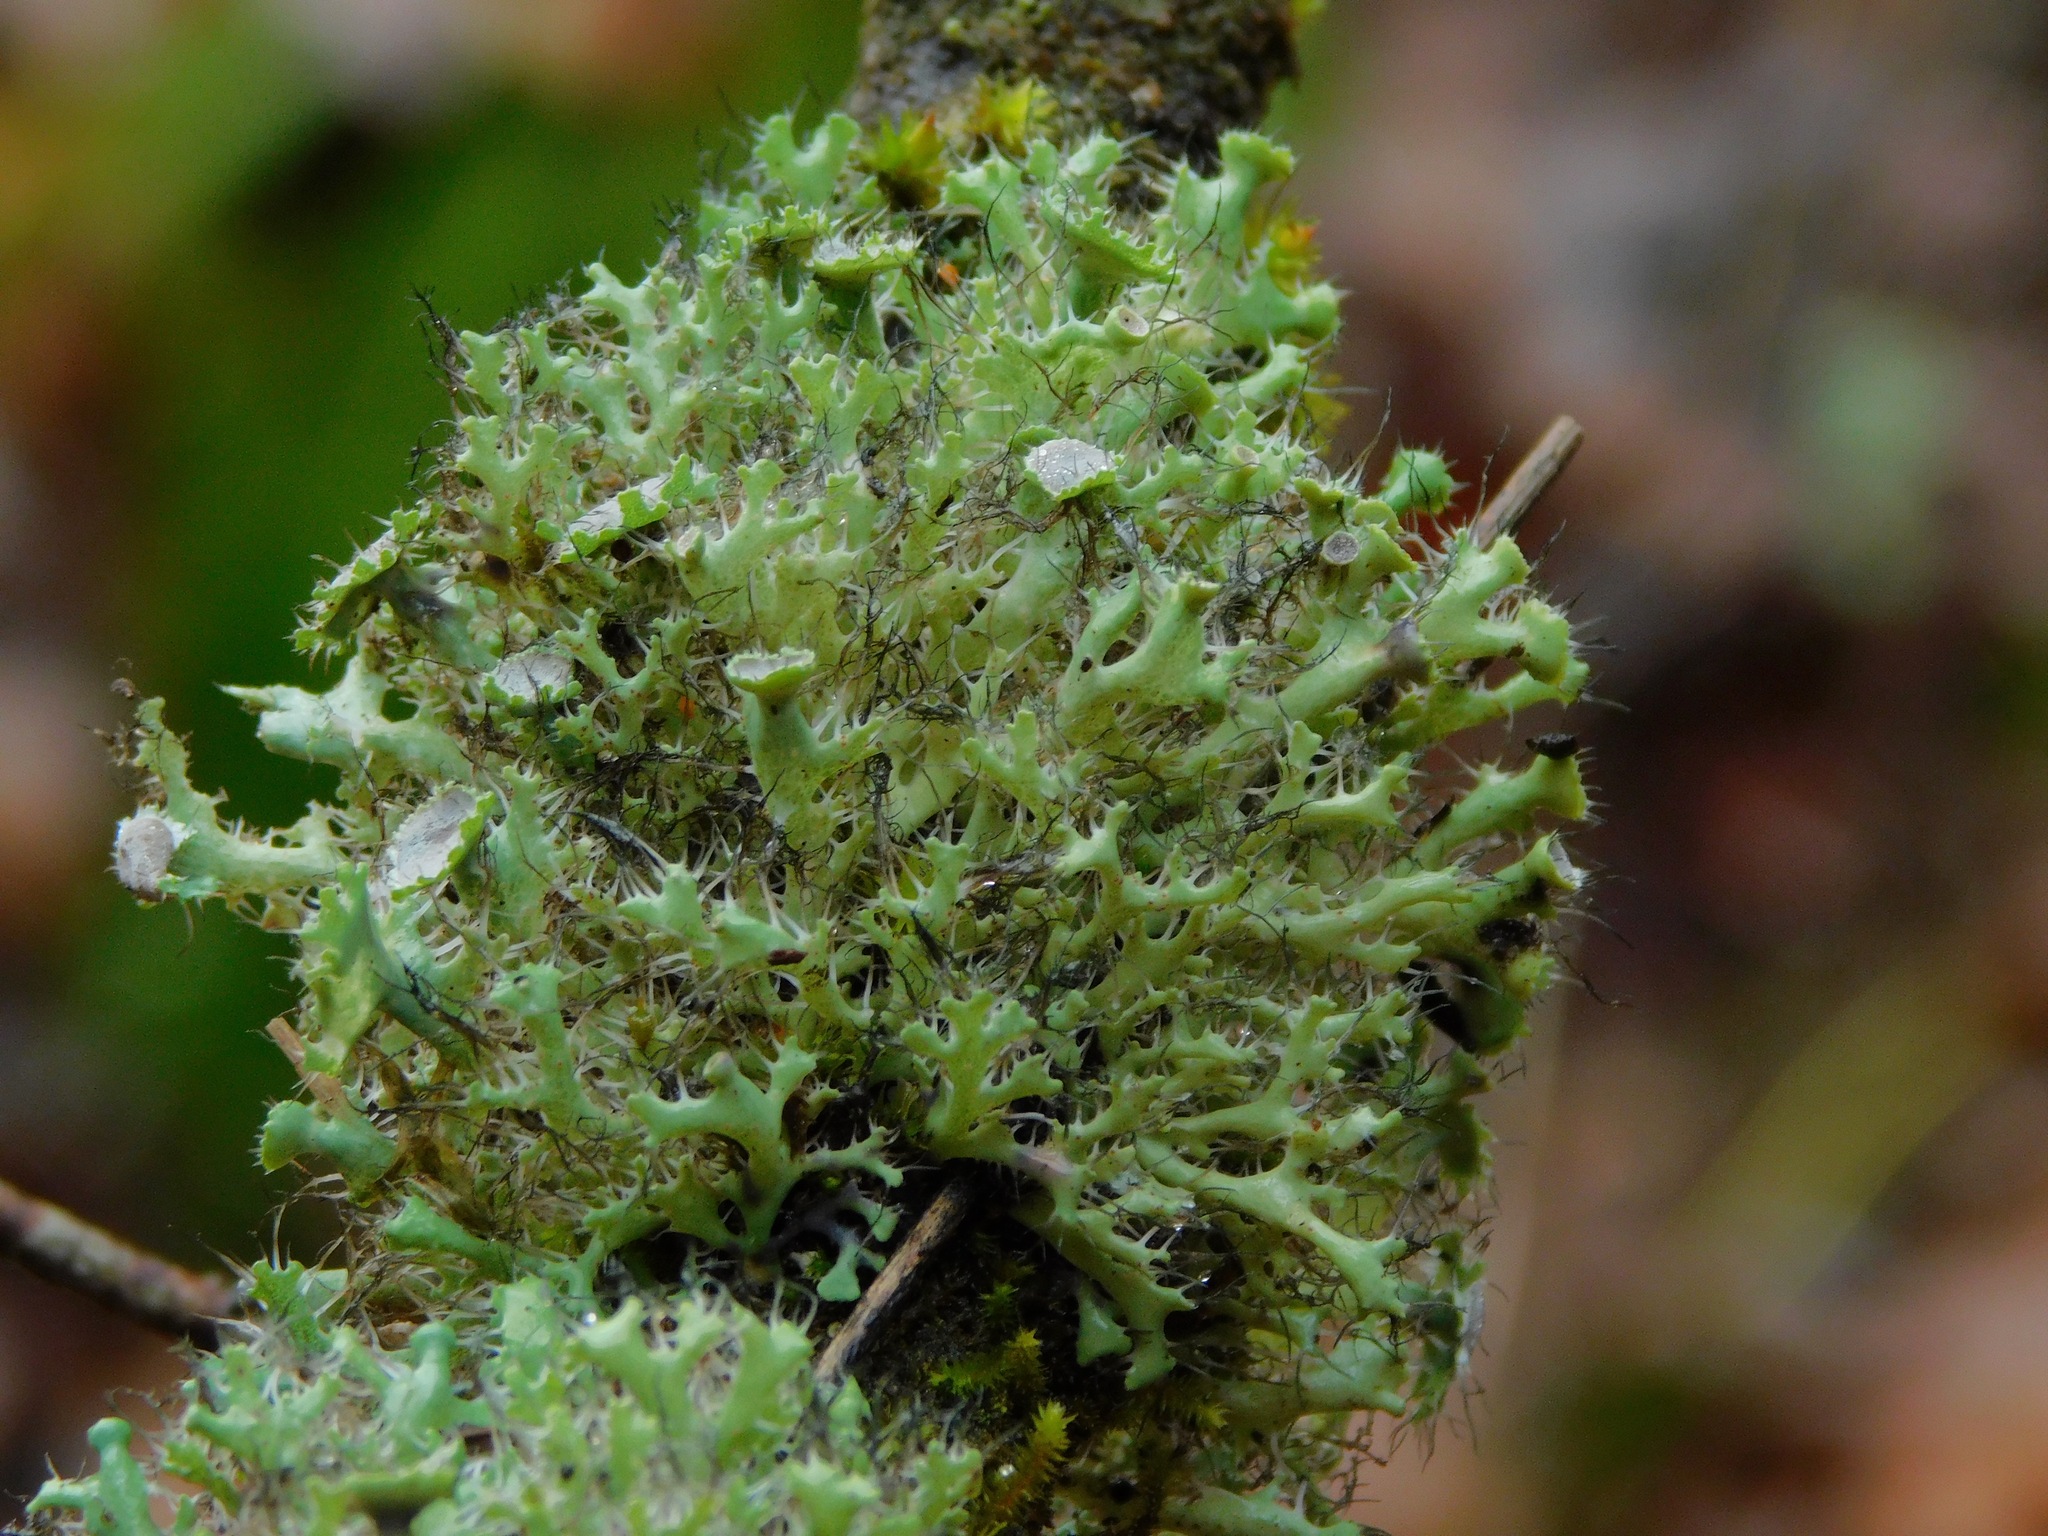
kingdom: Fungi
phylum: Ascomycota
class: Lecanoromycetes
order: Caliciales
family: Physciaceae
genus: Heterodermia
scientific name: Heterodermia echinata
